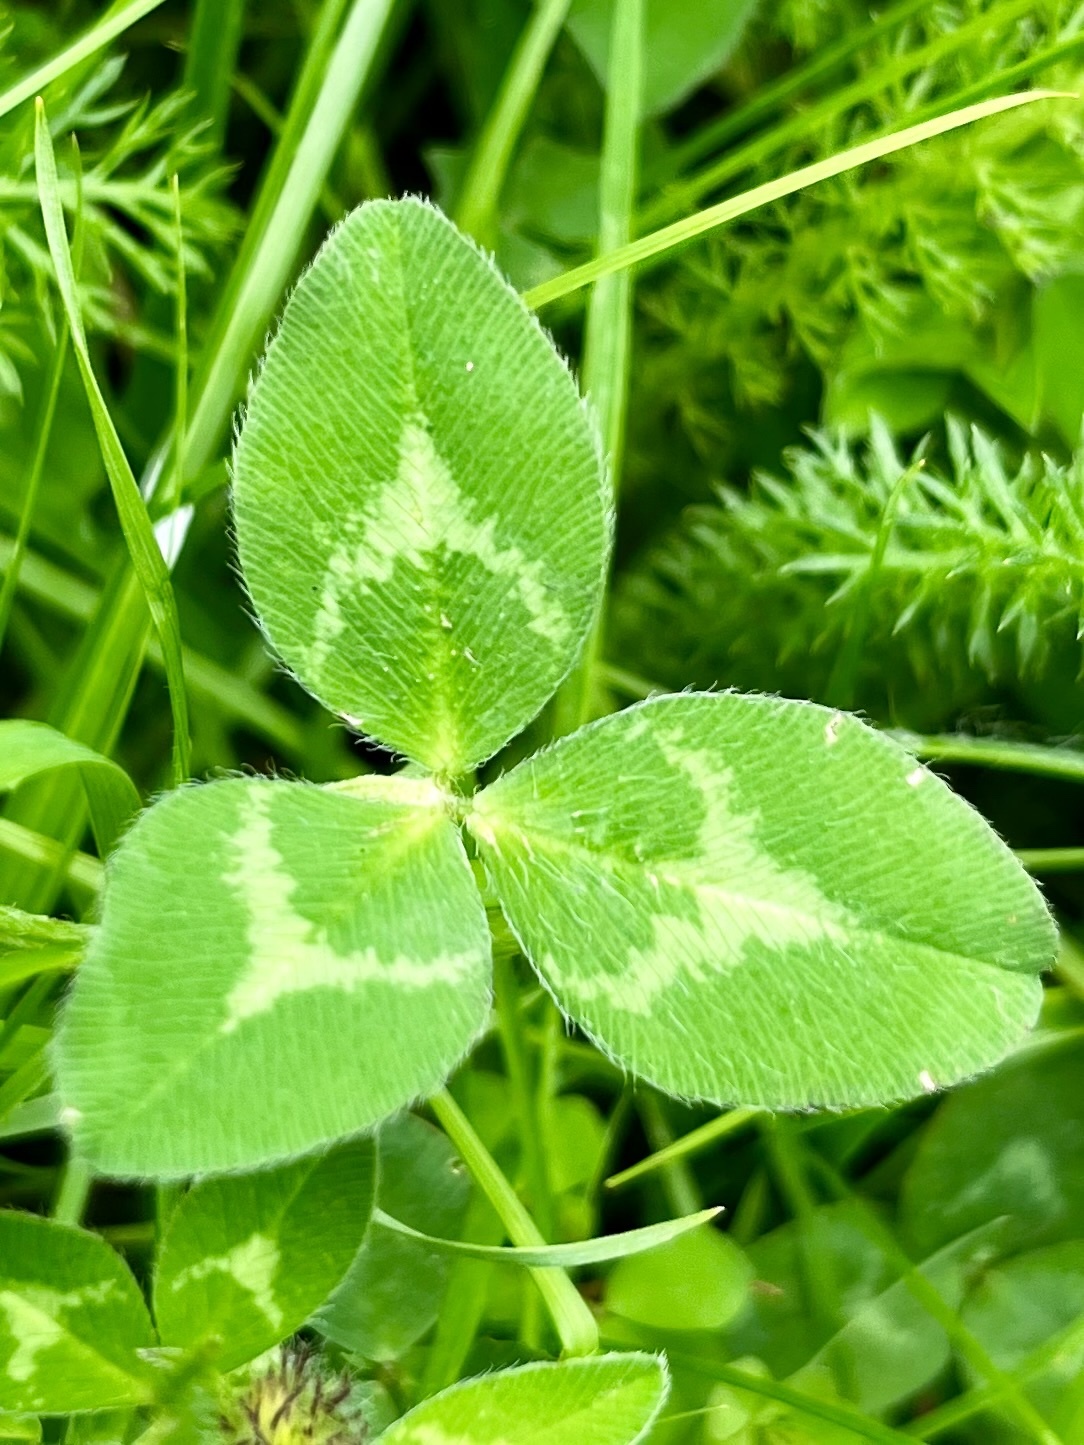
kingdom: Plantae
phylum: Tracheophyta
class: Magnoliopsida
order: Fabales
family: Fabaceae
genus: Trifolium
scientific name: Trifolium pratense
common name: Red clover
